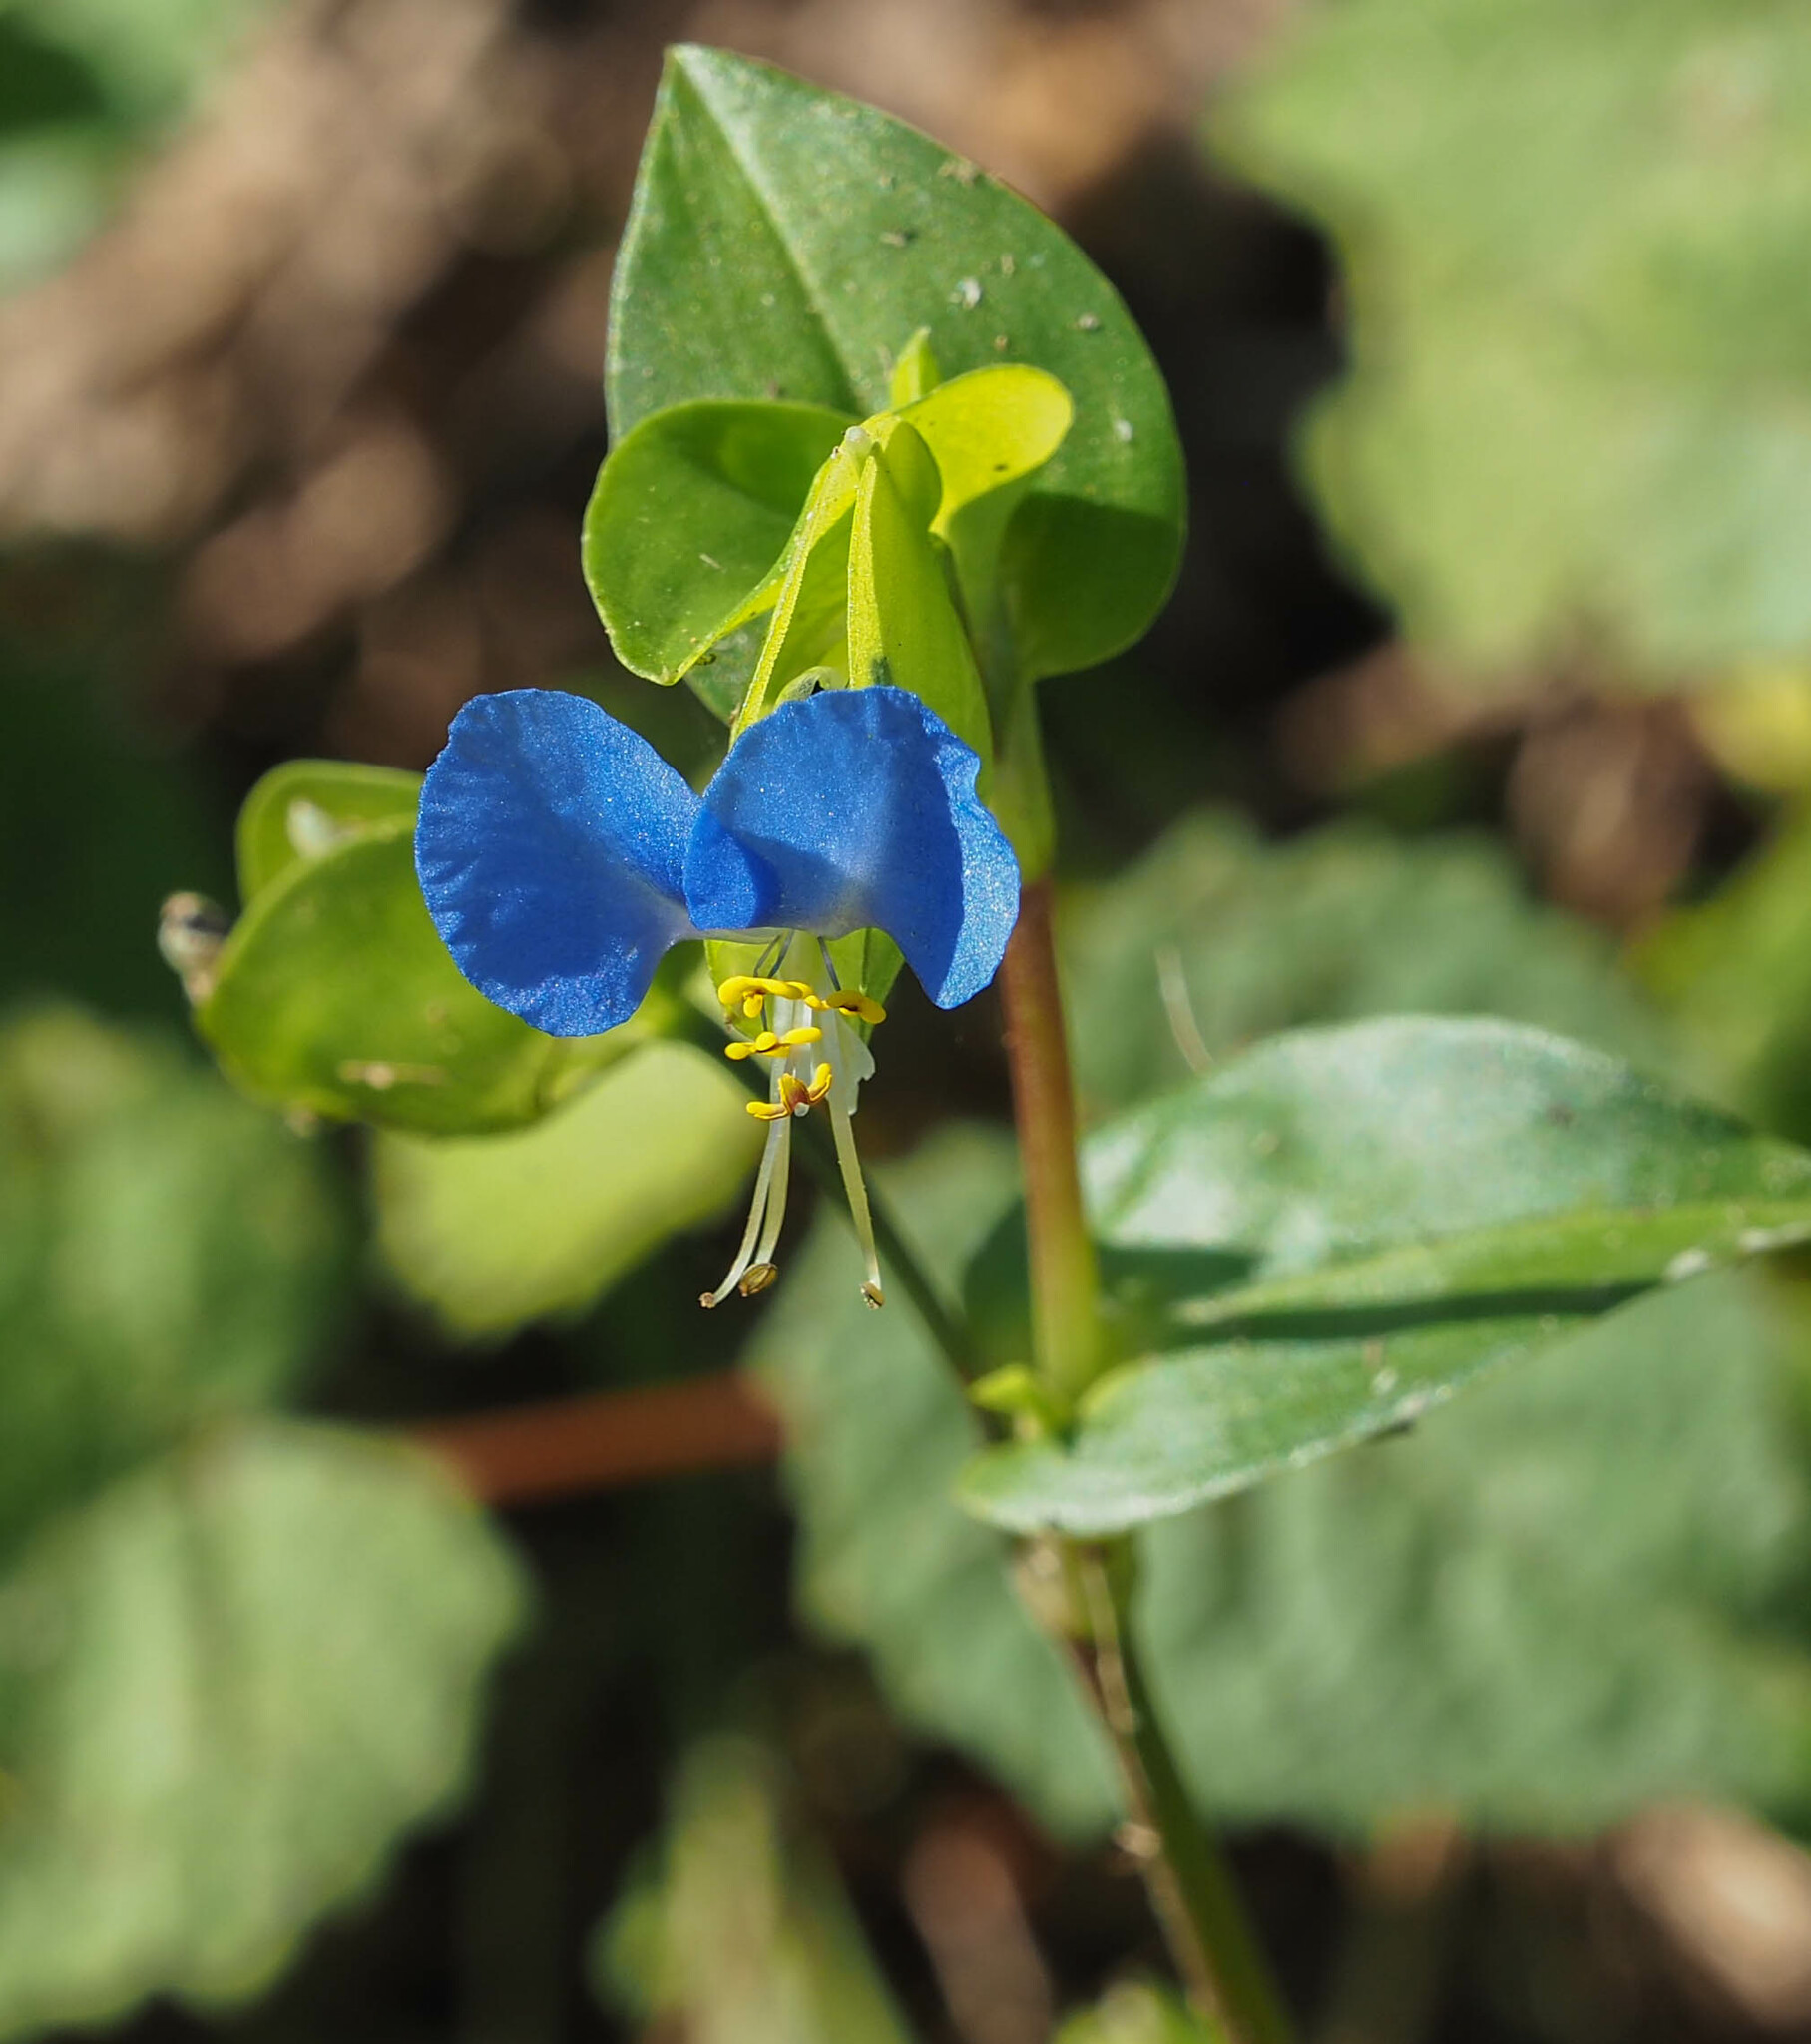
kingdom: Plantae
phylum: Tracheophyta
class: Liliopsida
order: Commelinales
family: Commelinaceae
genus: Commelina
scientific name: Commelina communis
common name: Asiatic dayflower
